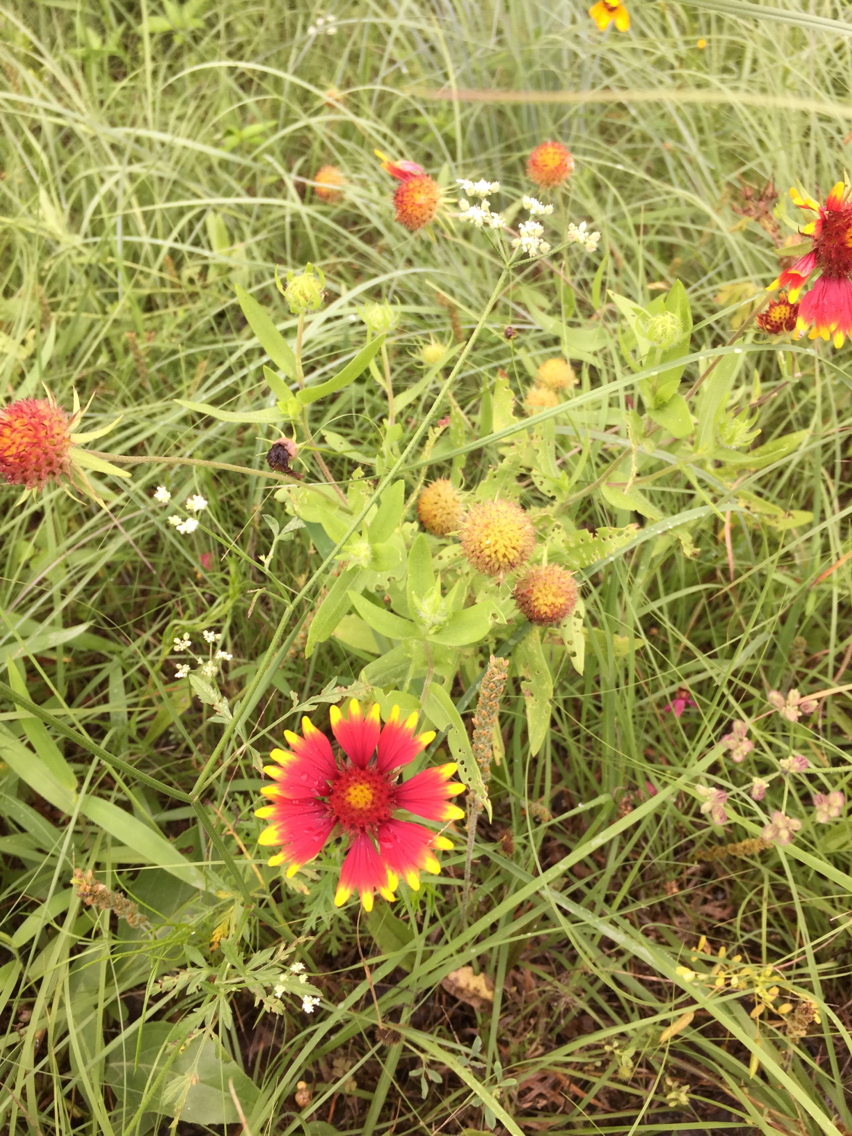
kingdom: Plantae
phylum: Tracheophyta
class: Magnoliopsida
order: Asterales
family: Asteraceae
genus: Gaillardia
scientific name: Gaillardia pulchella
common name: Firewheel
